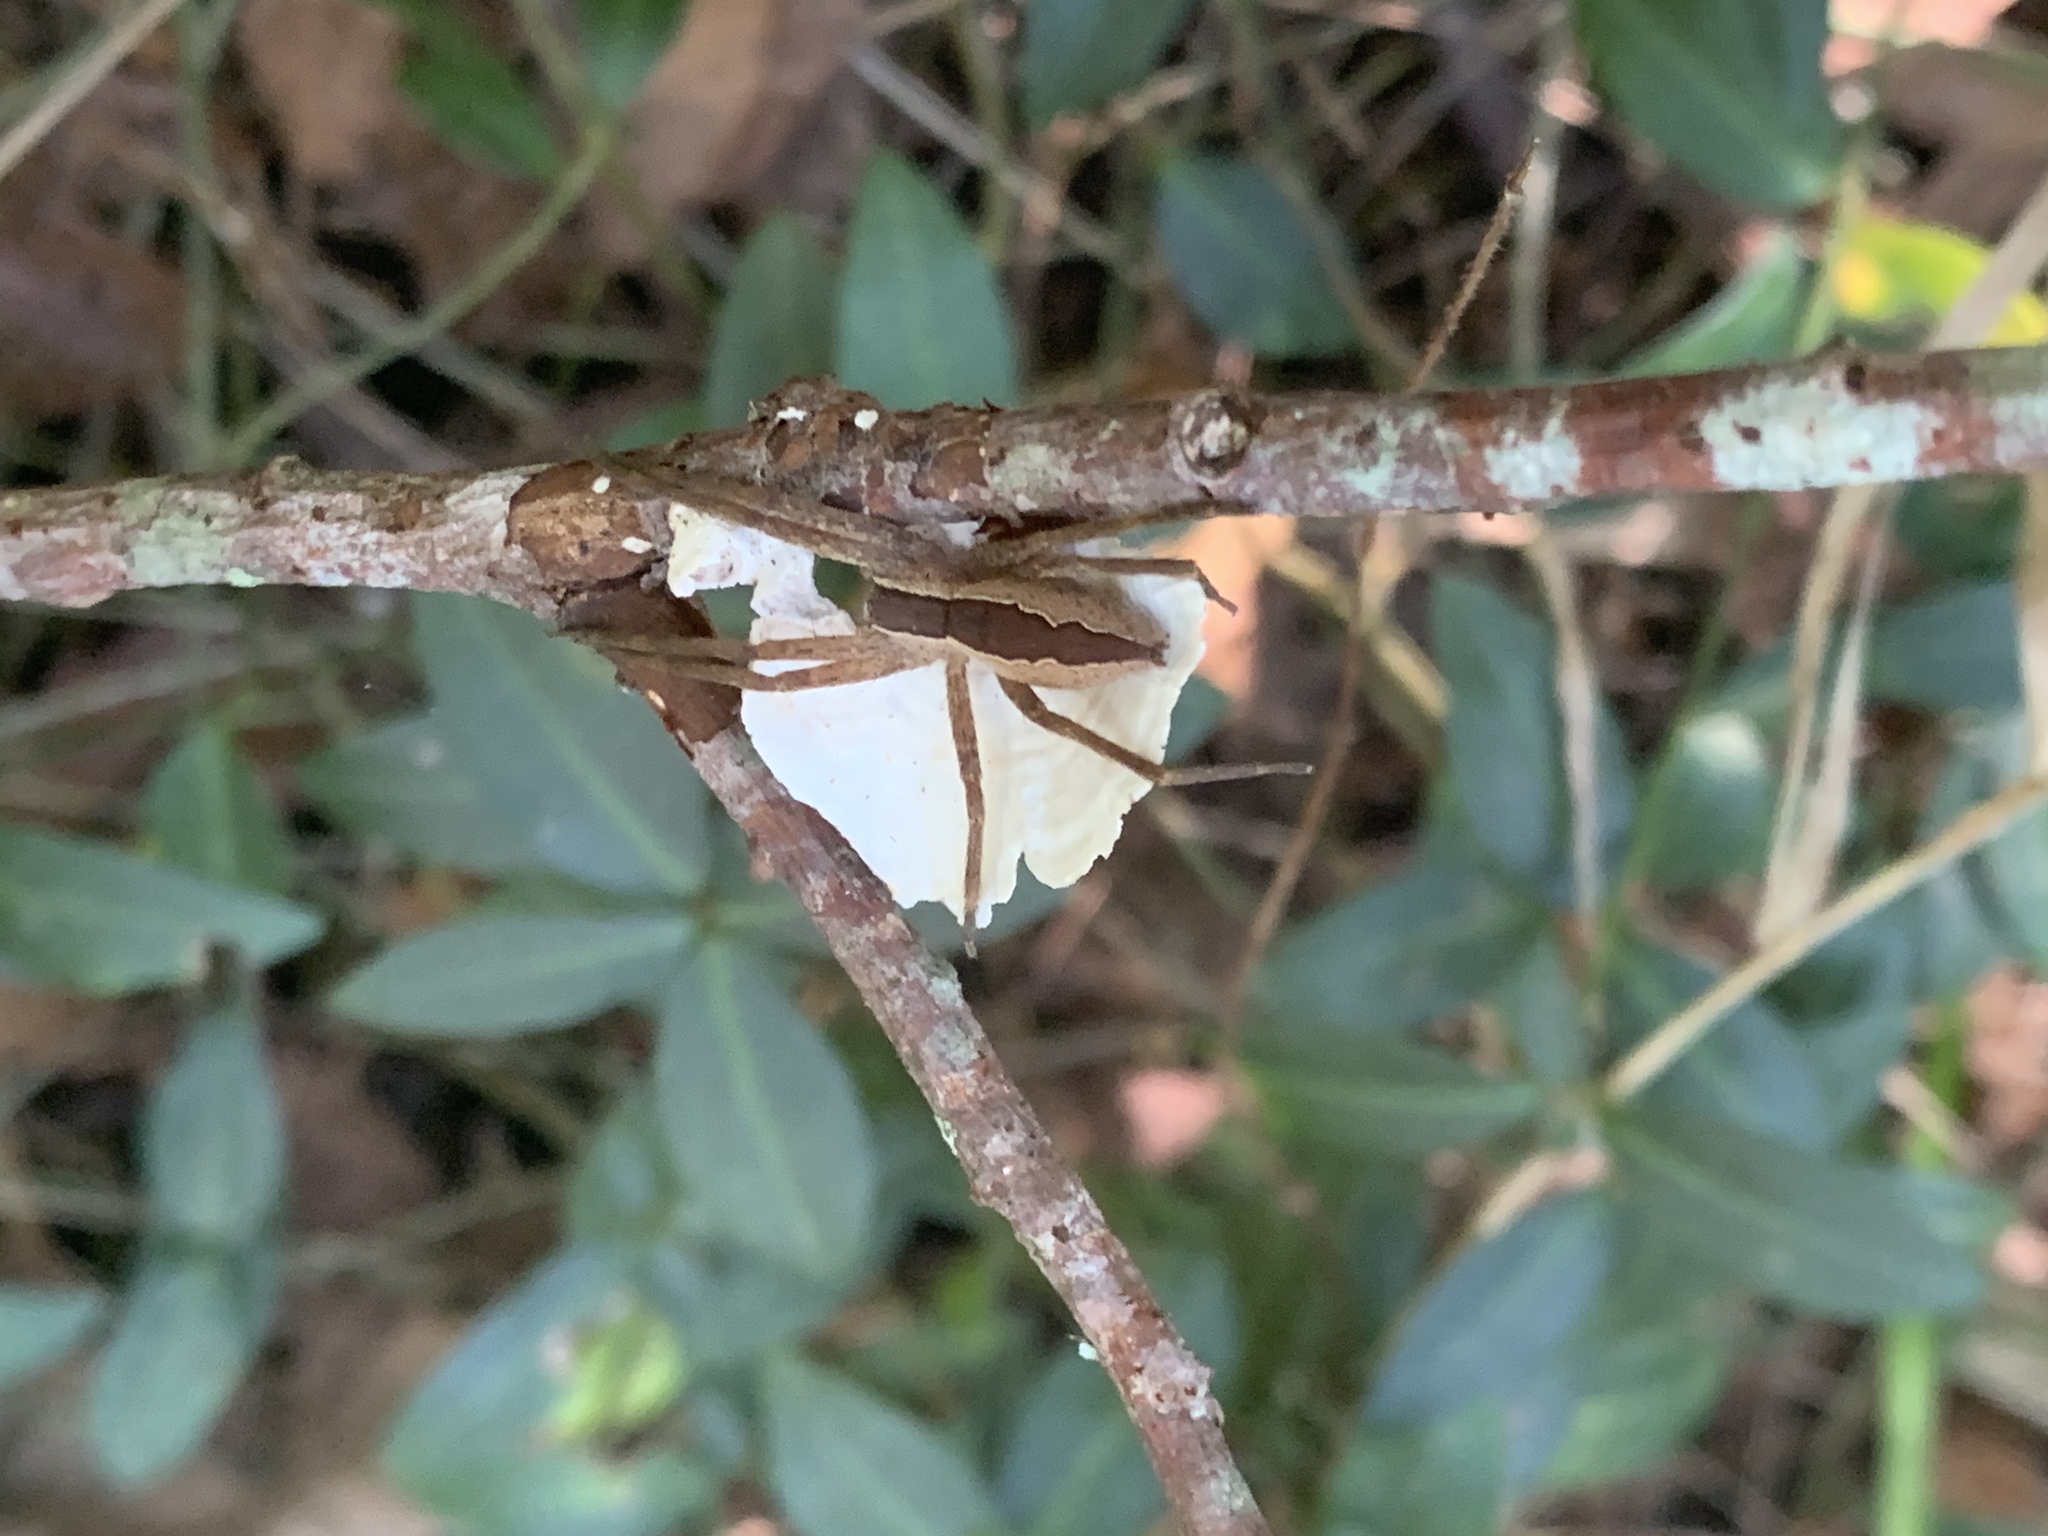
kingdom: Animalia
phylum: Arthropoda
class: Arachnida
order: Araneae
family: Pisauridae
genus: Pisaurina
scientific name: Pisaurina mira
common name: American nursery web spider
